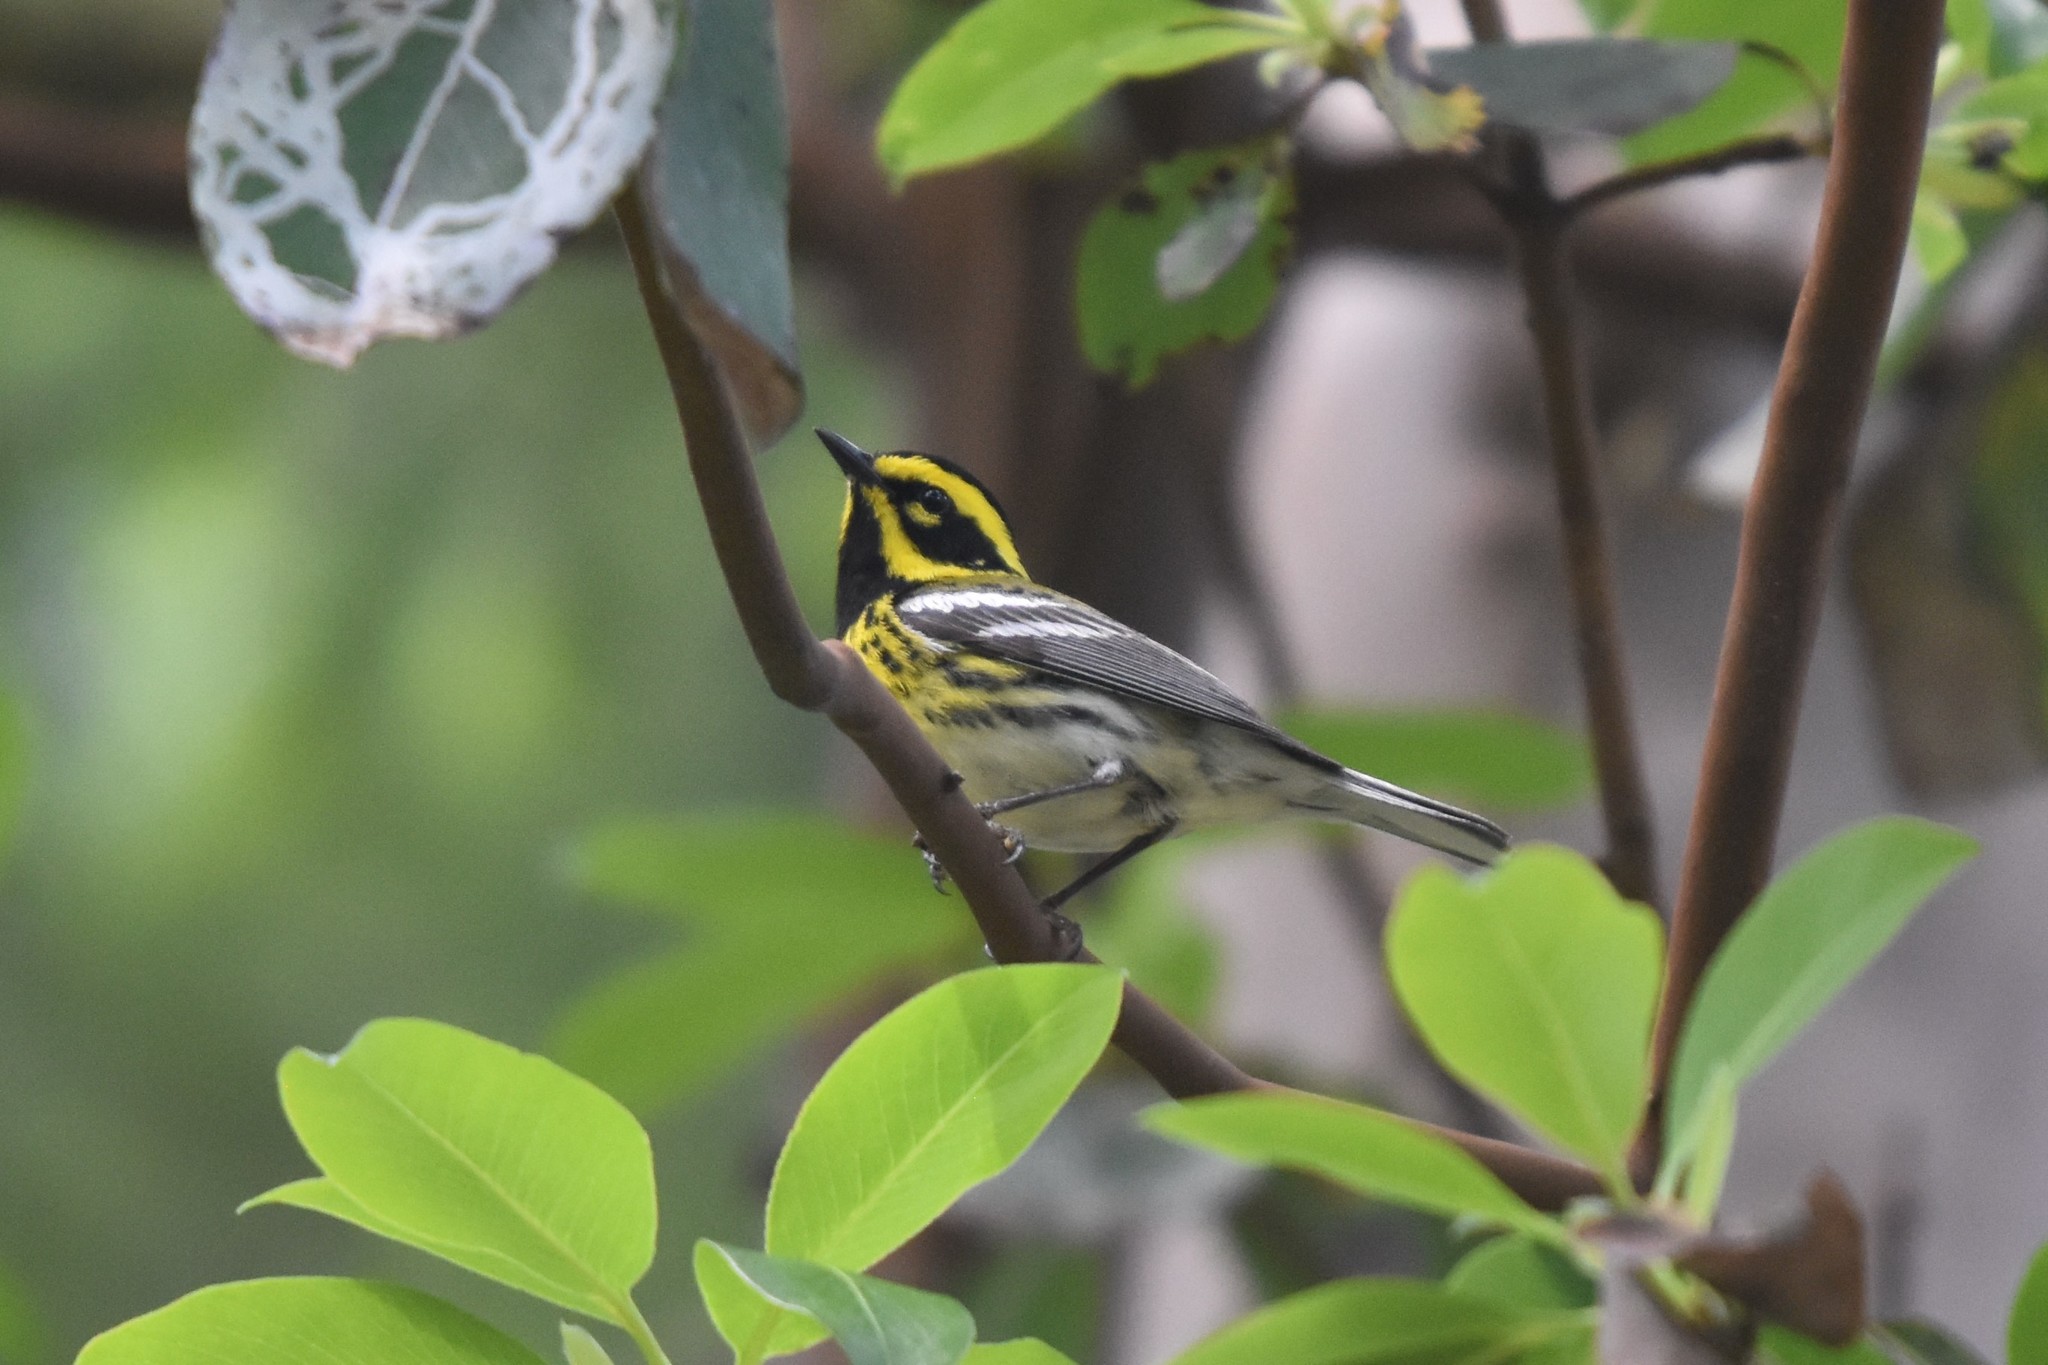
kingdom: Animalia
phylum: Chordata
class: Aves
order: Passeriformes
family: Parulidae
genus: Setophaga
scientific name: Setophaga townsendi
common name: Townsend's warbler
